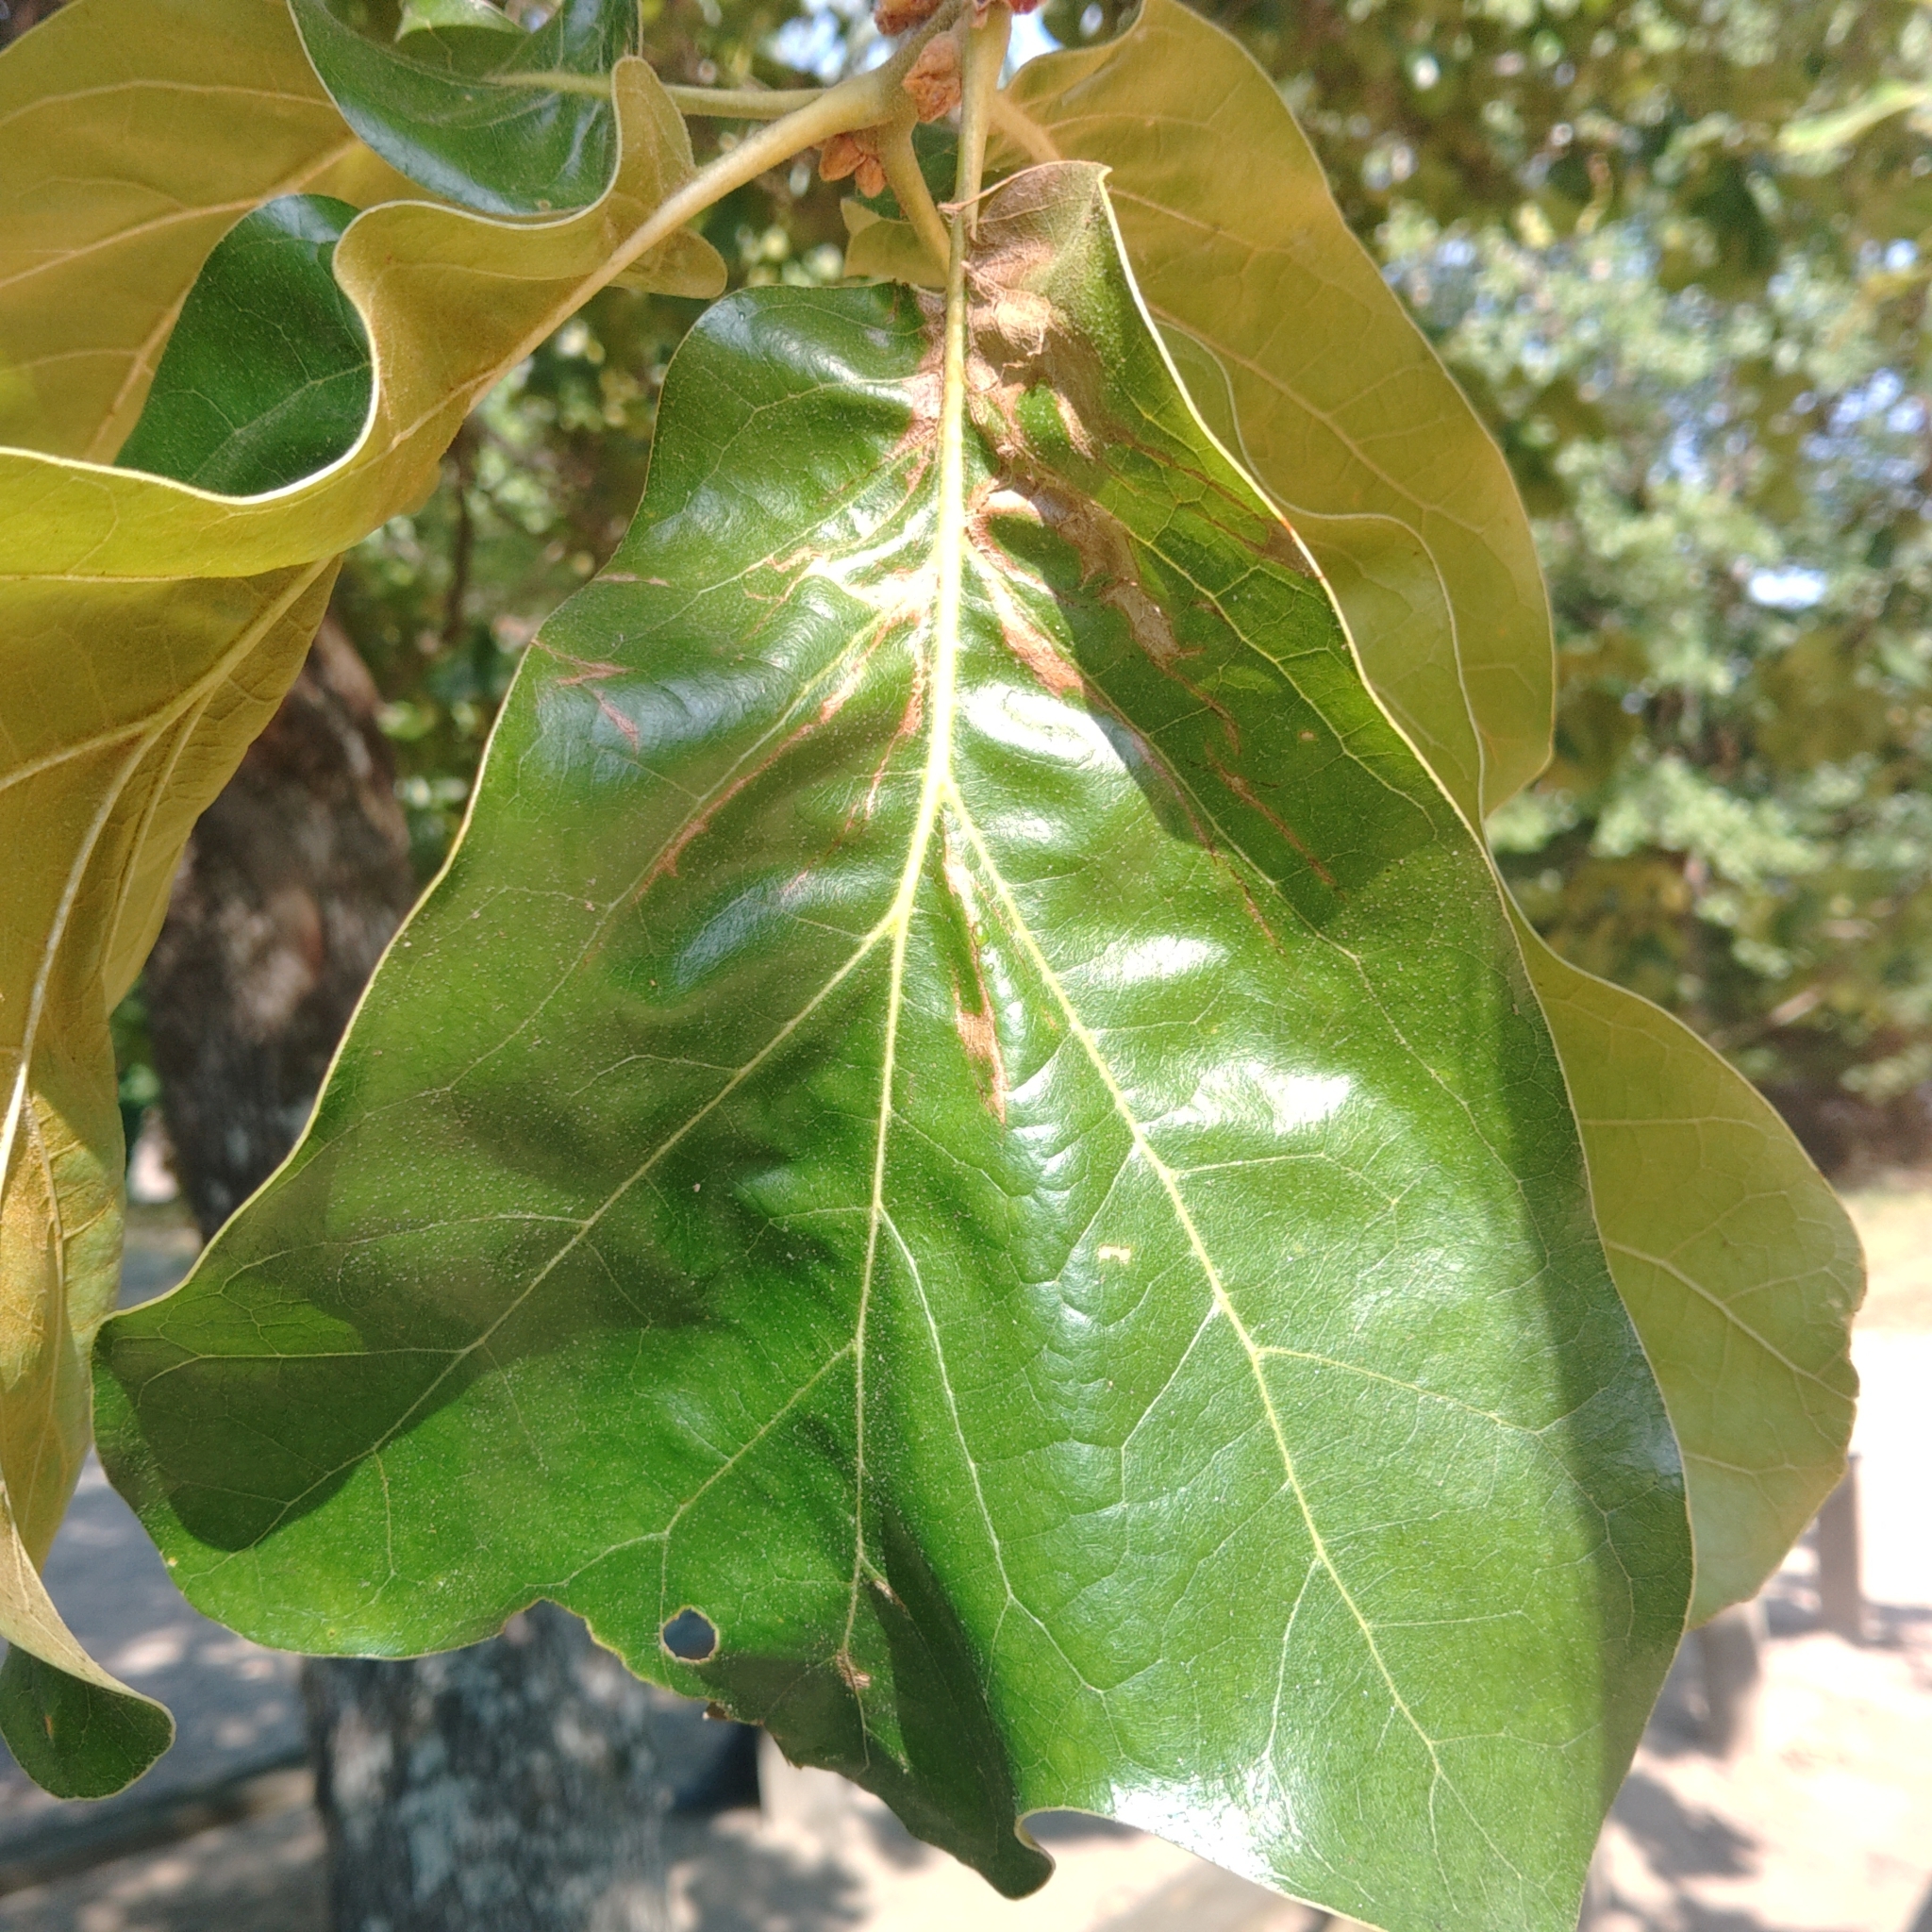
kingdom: Plantae
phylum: Tracheophyta
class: Magnoliopsida
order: Fagales
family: Fagaceae
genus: Quercus
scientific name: Quercus marilandica
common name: Blackjack oak
